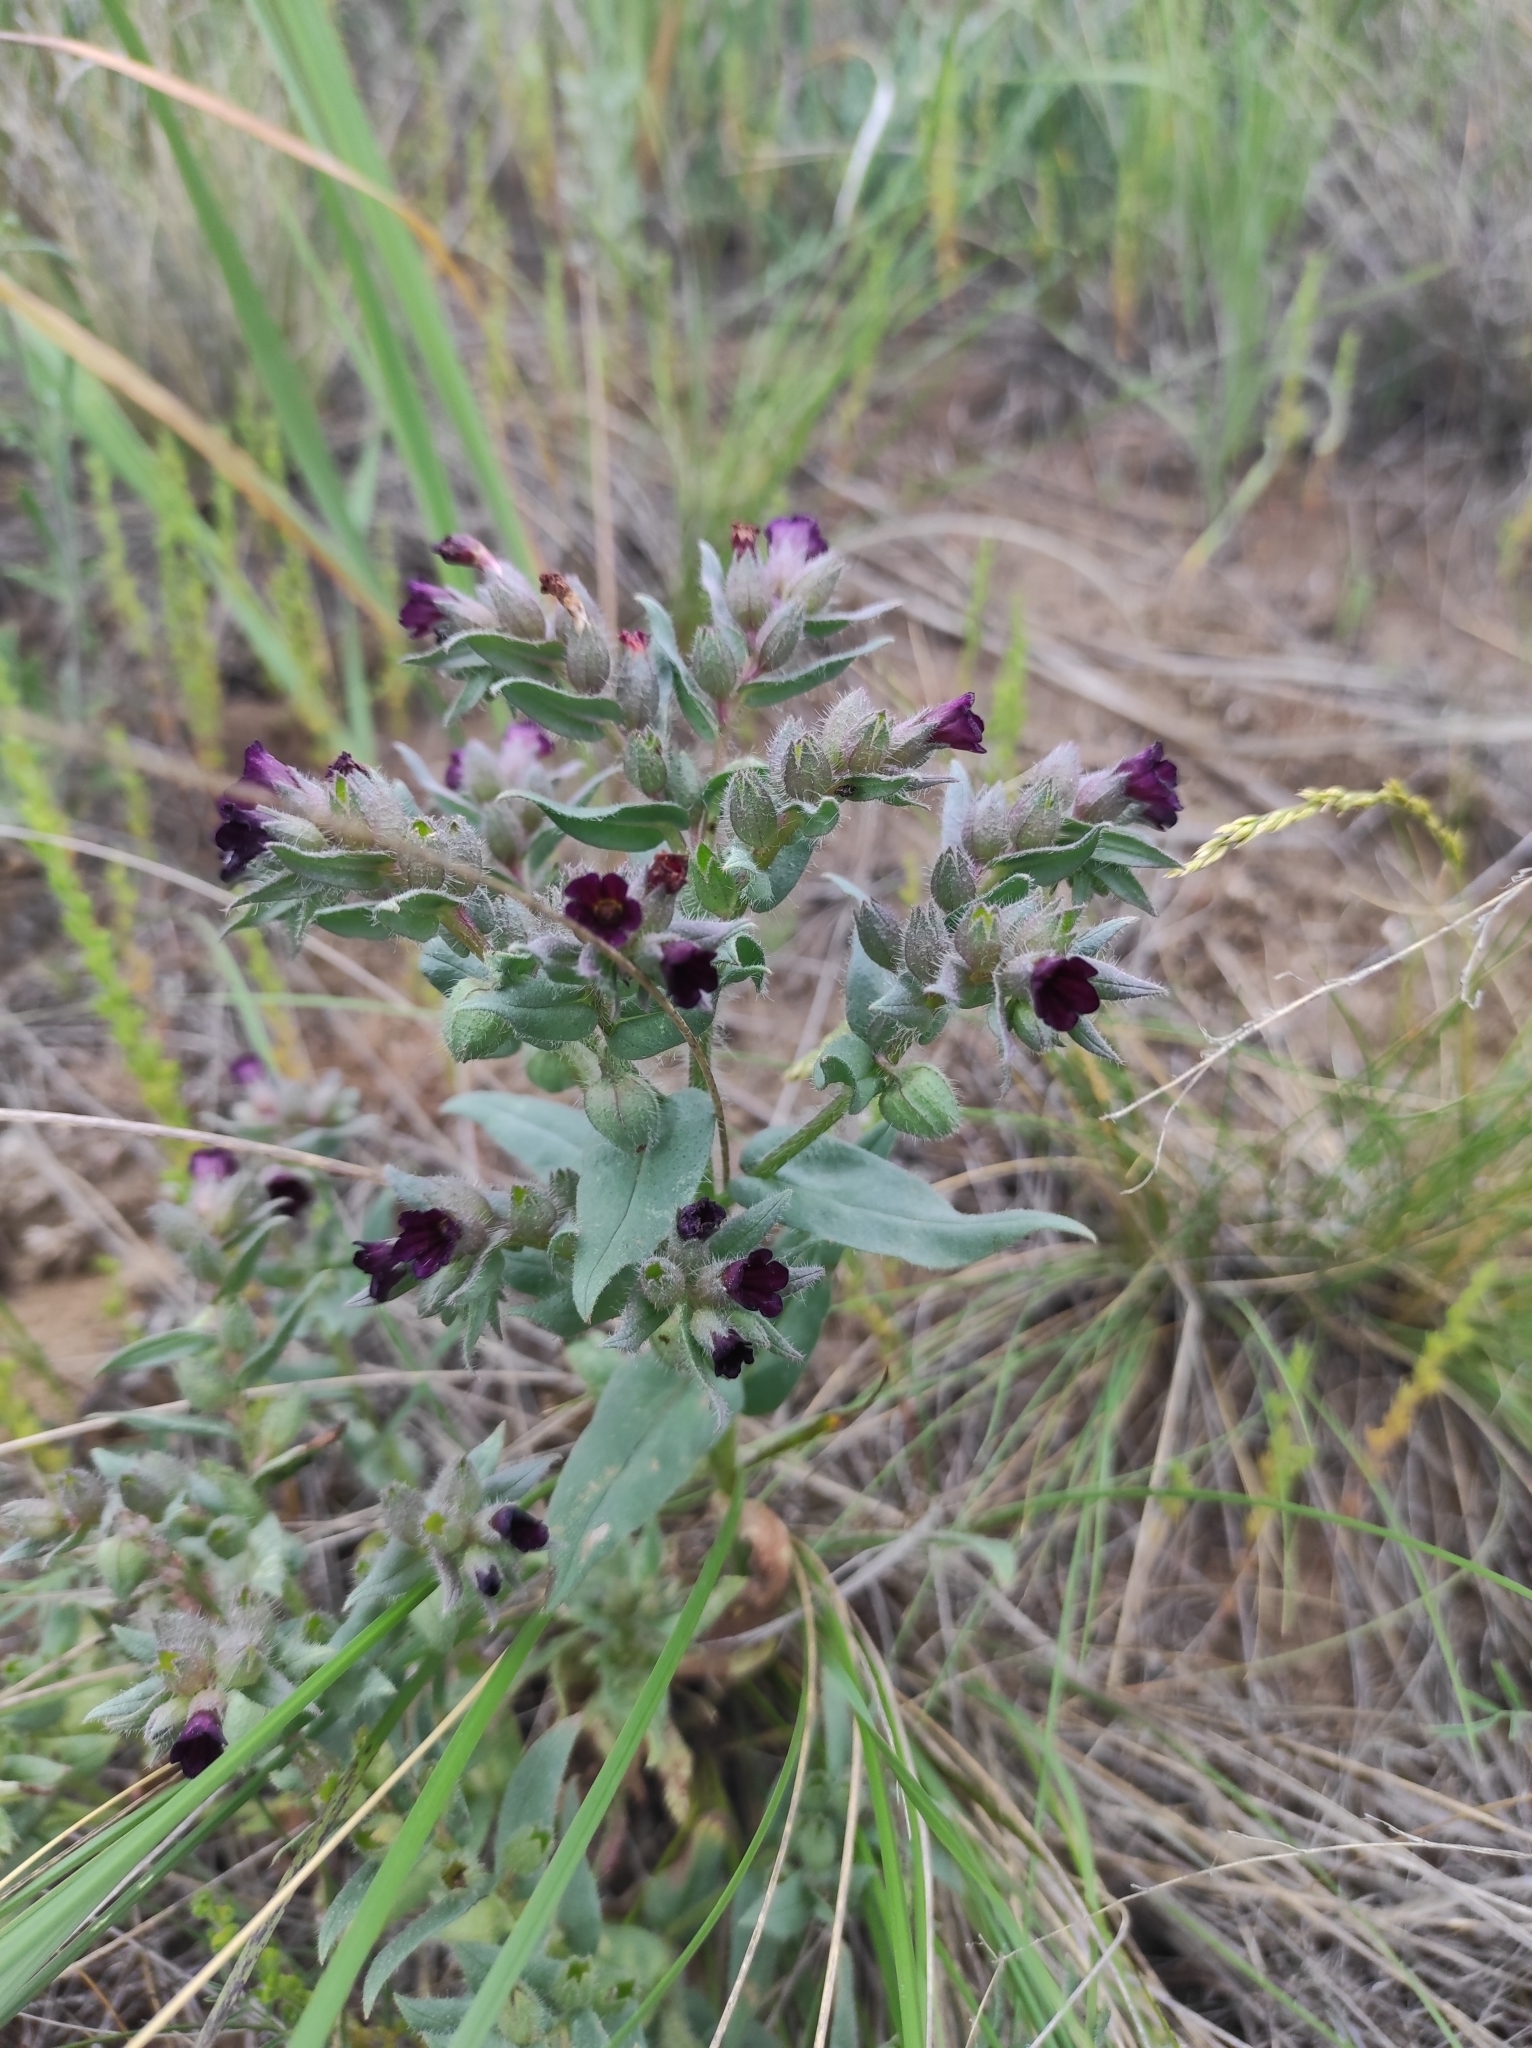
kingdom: Plantae
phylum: Tracheophyta
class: Magnoliopsida
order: Boraginales
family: Boraginaceae
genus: Nonea
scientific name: Nonea pulla
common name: Brown nonea
